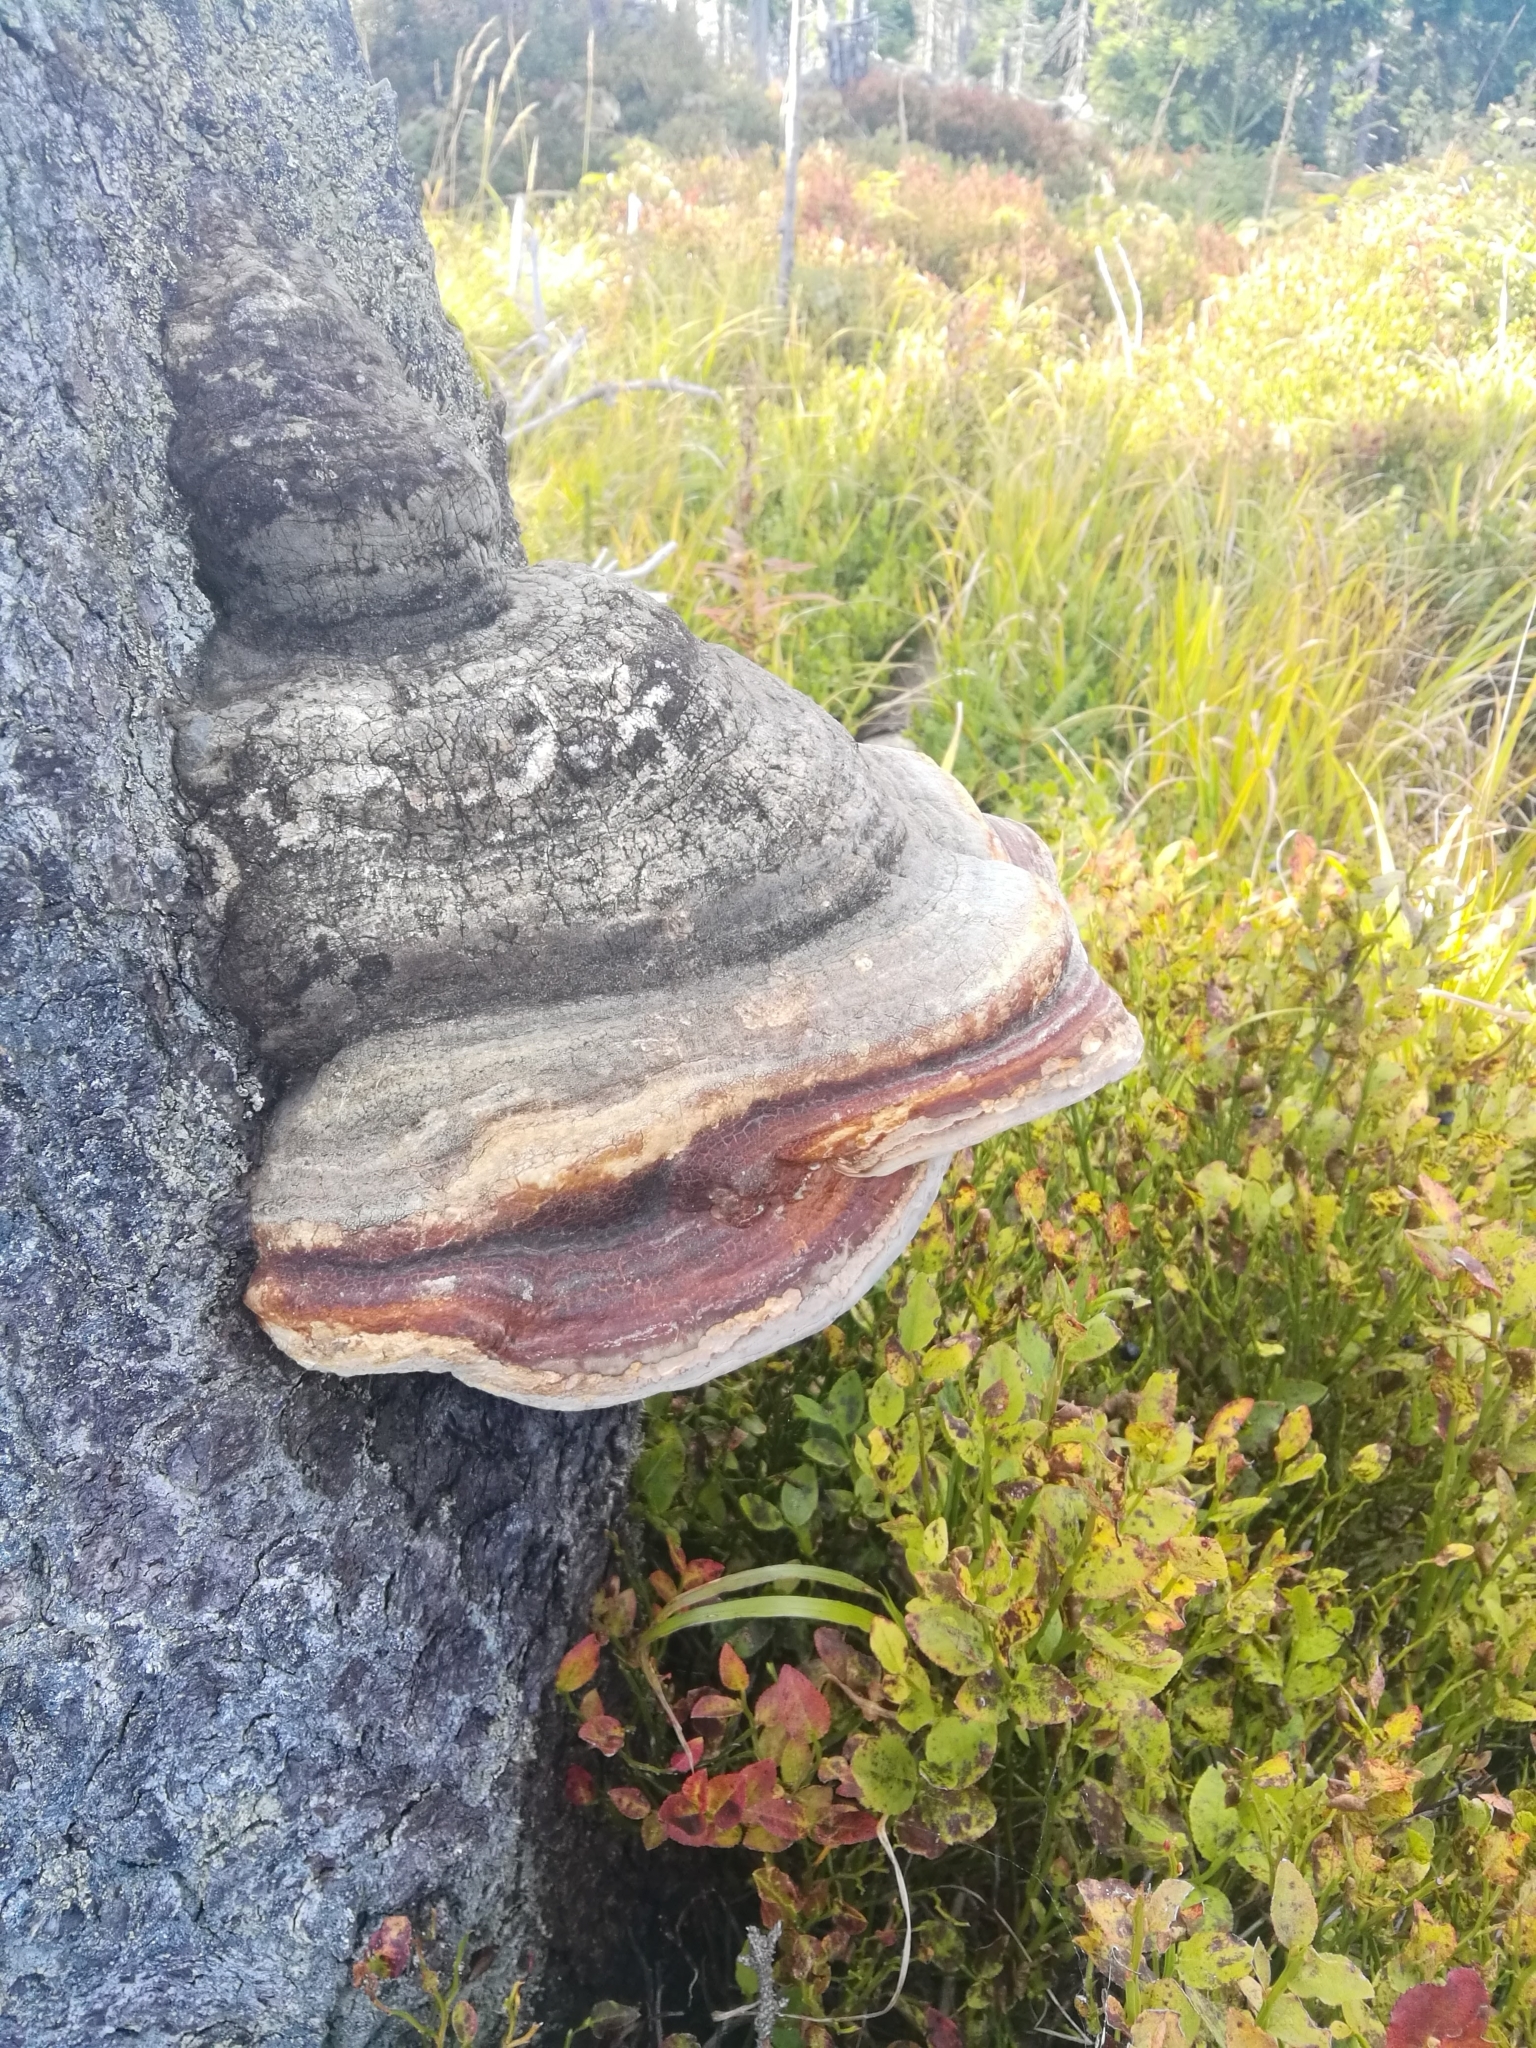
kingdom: Fungi
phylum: Basidiomycota
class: Agaricomycetes
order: Polyporales
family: Polyporaceae
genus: Fomes
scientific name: Fomes fomentarius
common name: Hoof fungus
